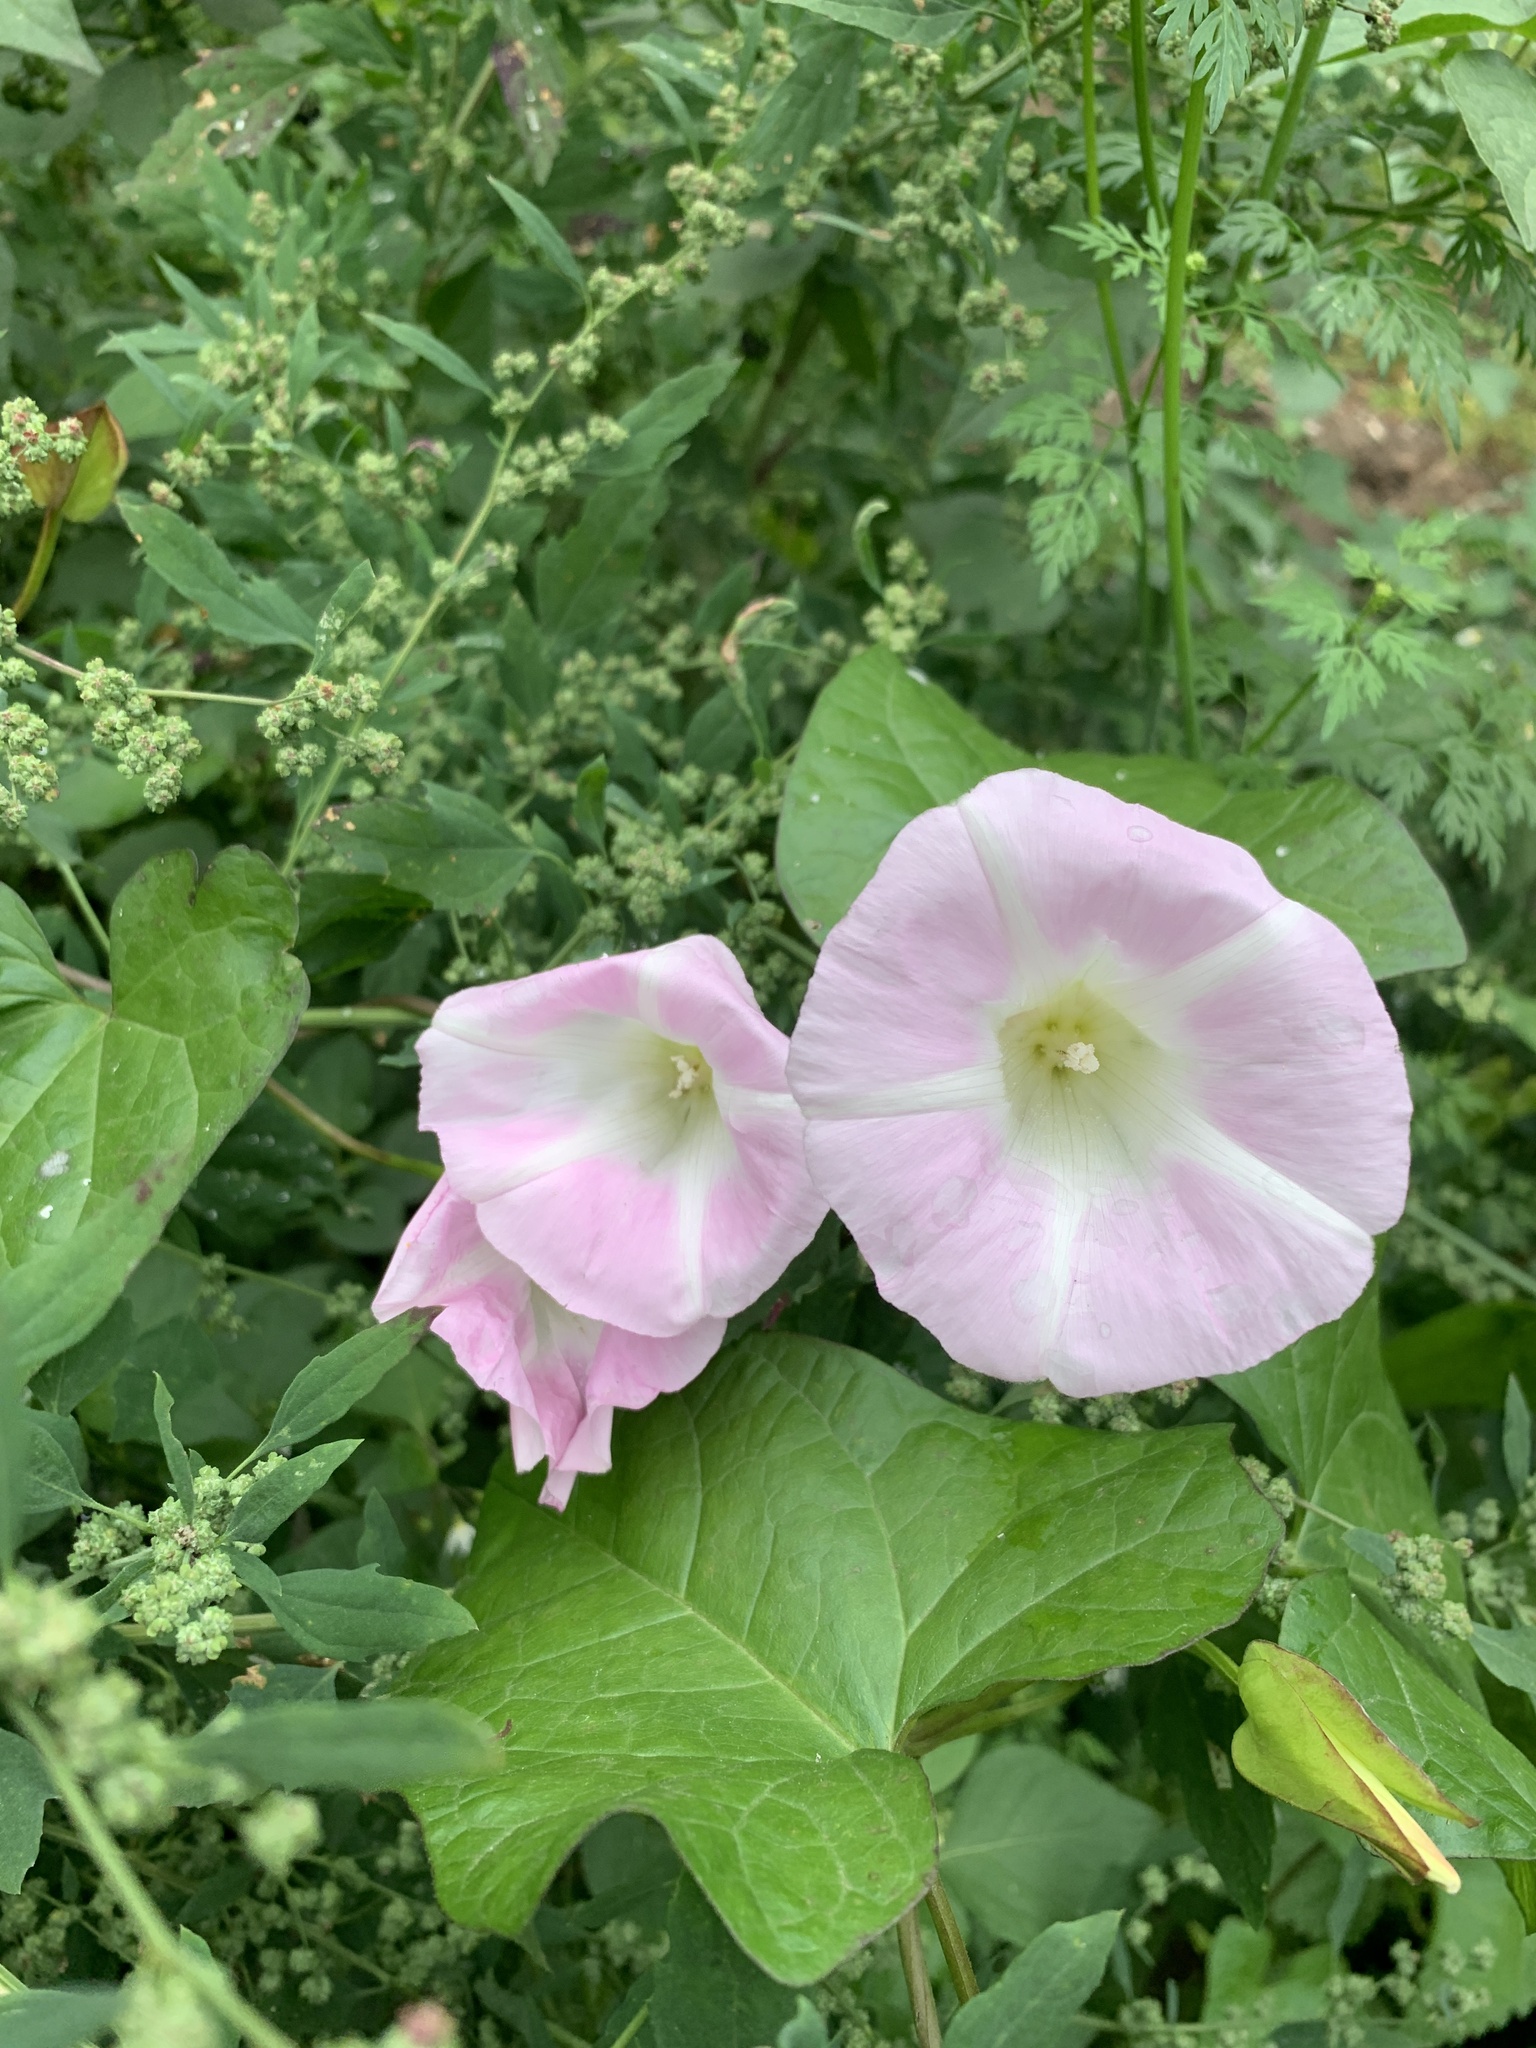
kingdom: Plantae
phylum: Tracheophyta
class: Magnoliopsida
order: Solanales
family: Convolvulaceae
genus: Calystegia
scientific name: Calystegia sepium
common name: Hedge bindweed
